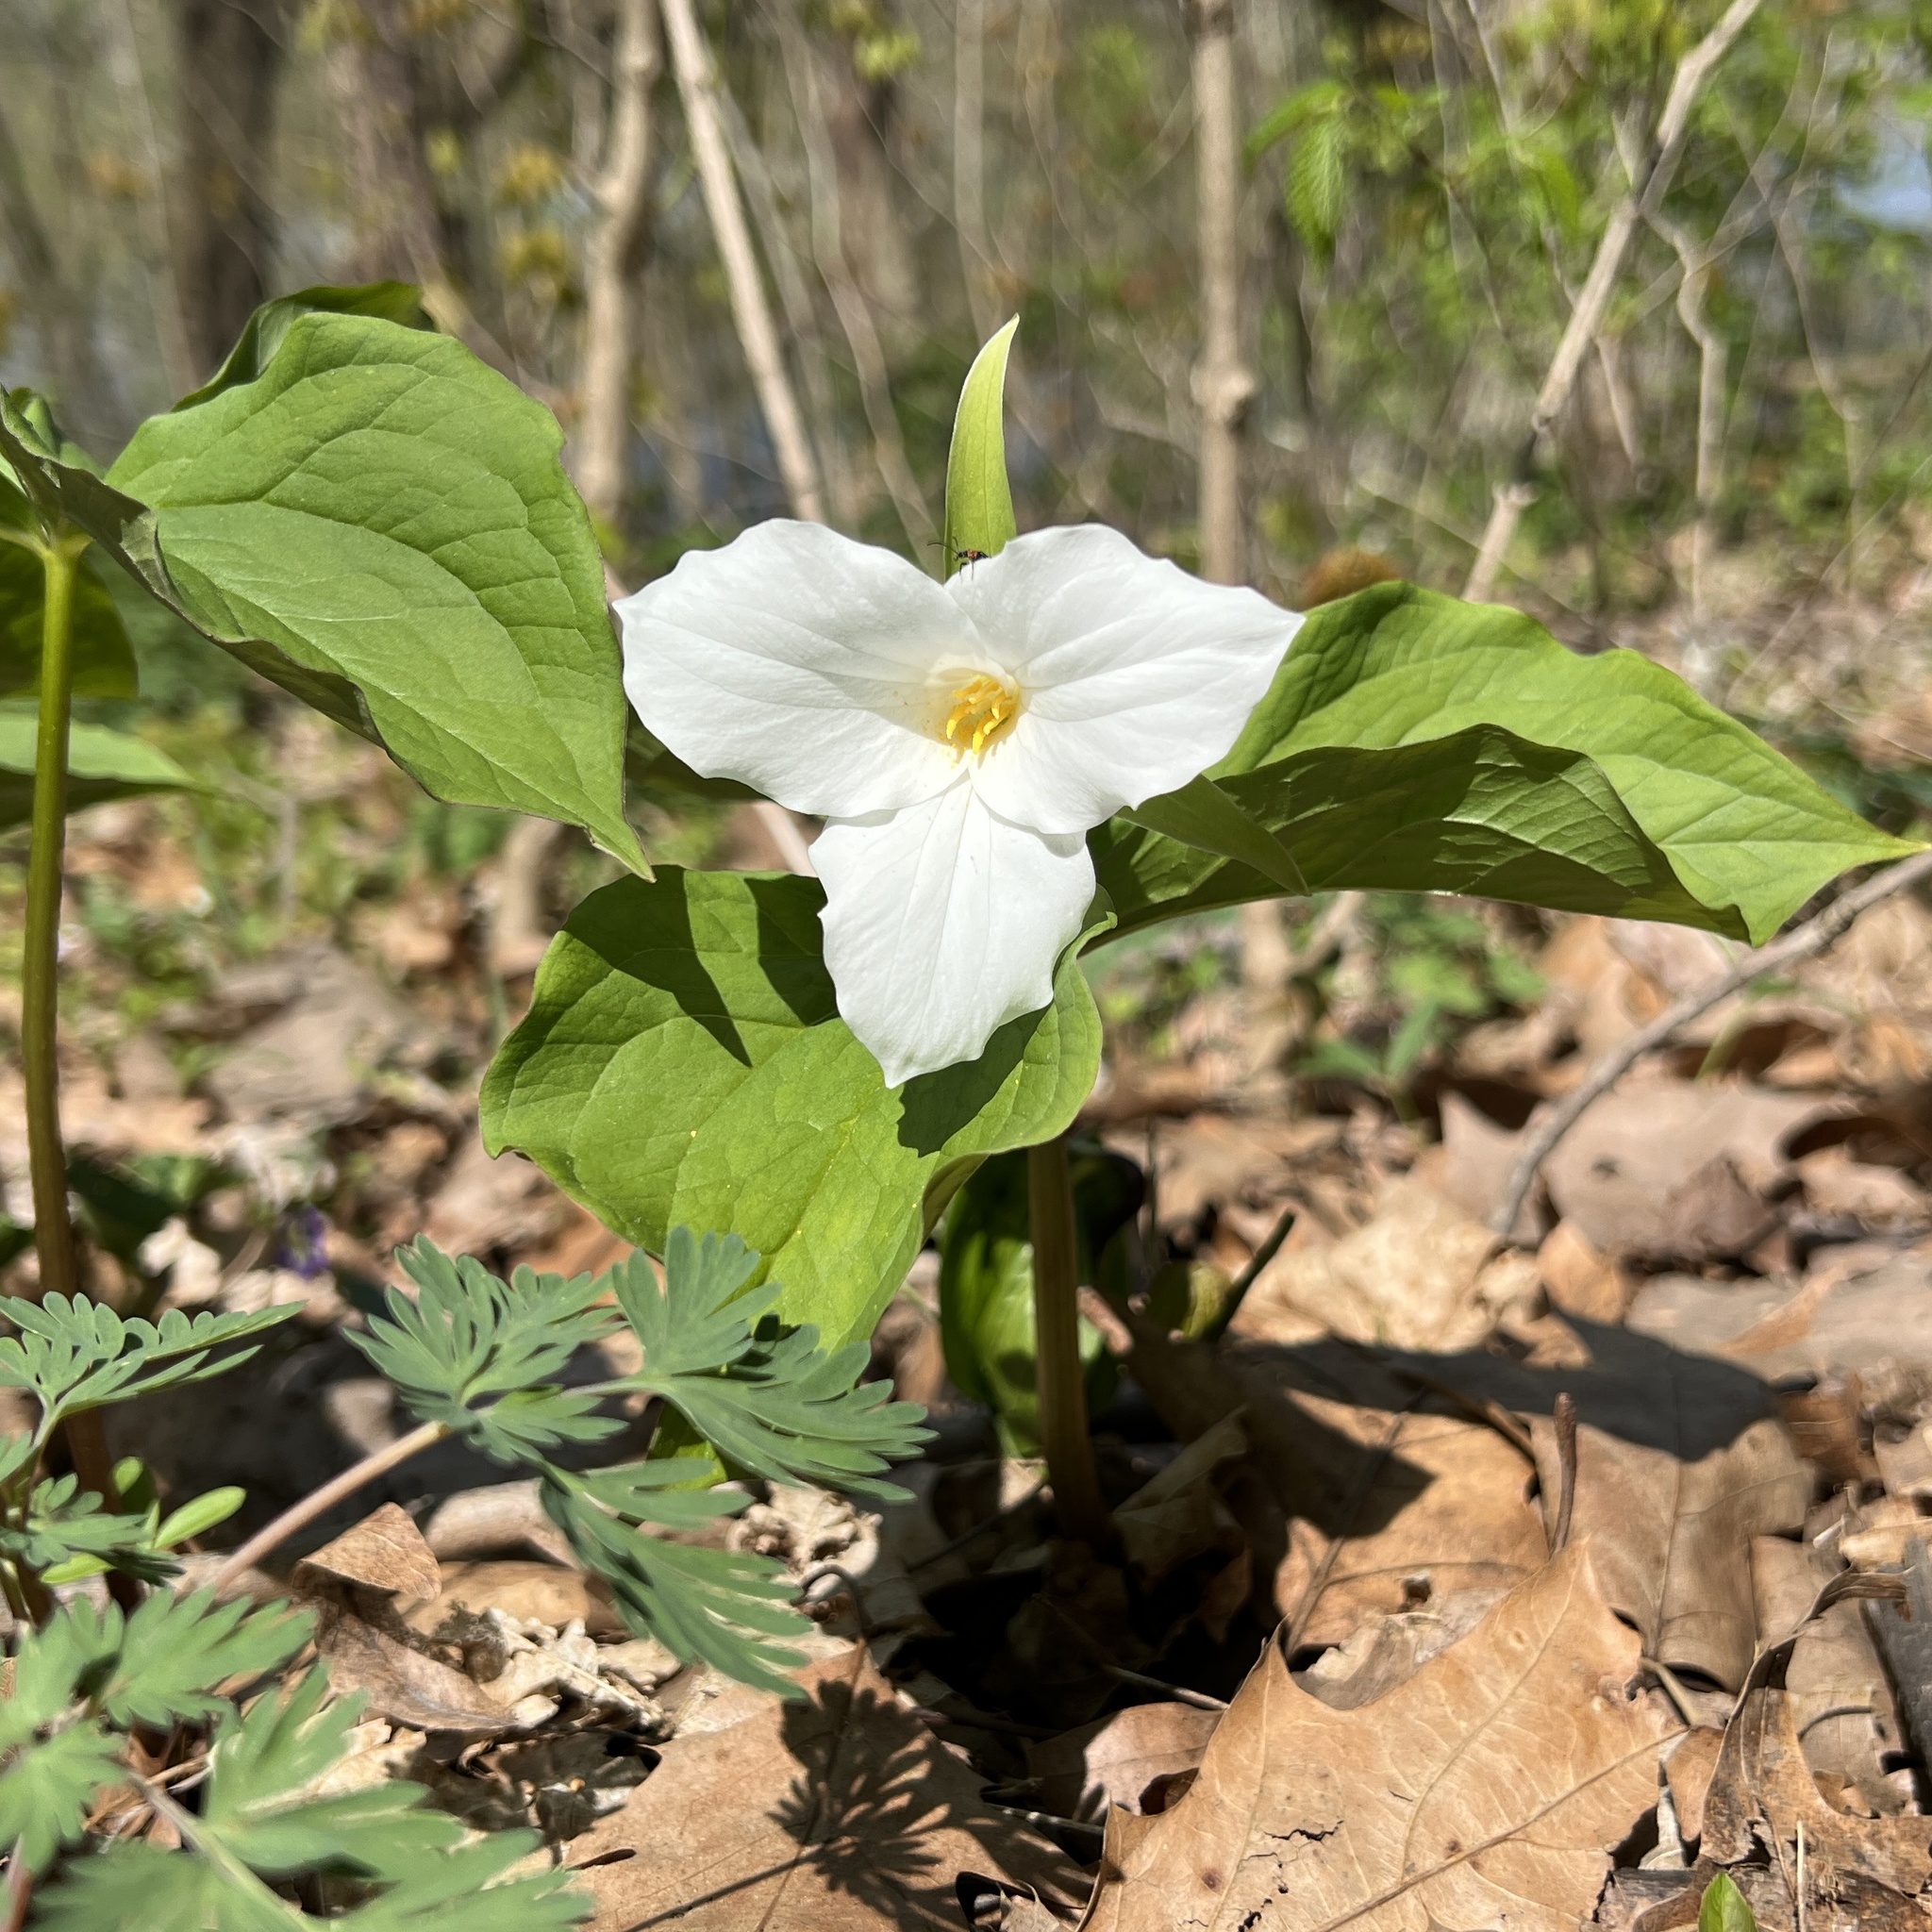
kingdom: Plantae
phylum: Tracheophyta
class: Liliopsida
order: Liliales
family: Melanthiaceae
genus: Trillium
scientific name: Trillium grandiflorum
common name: Great white trillium
